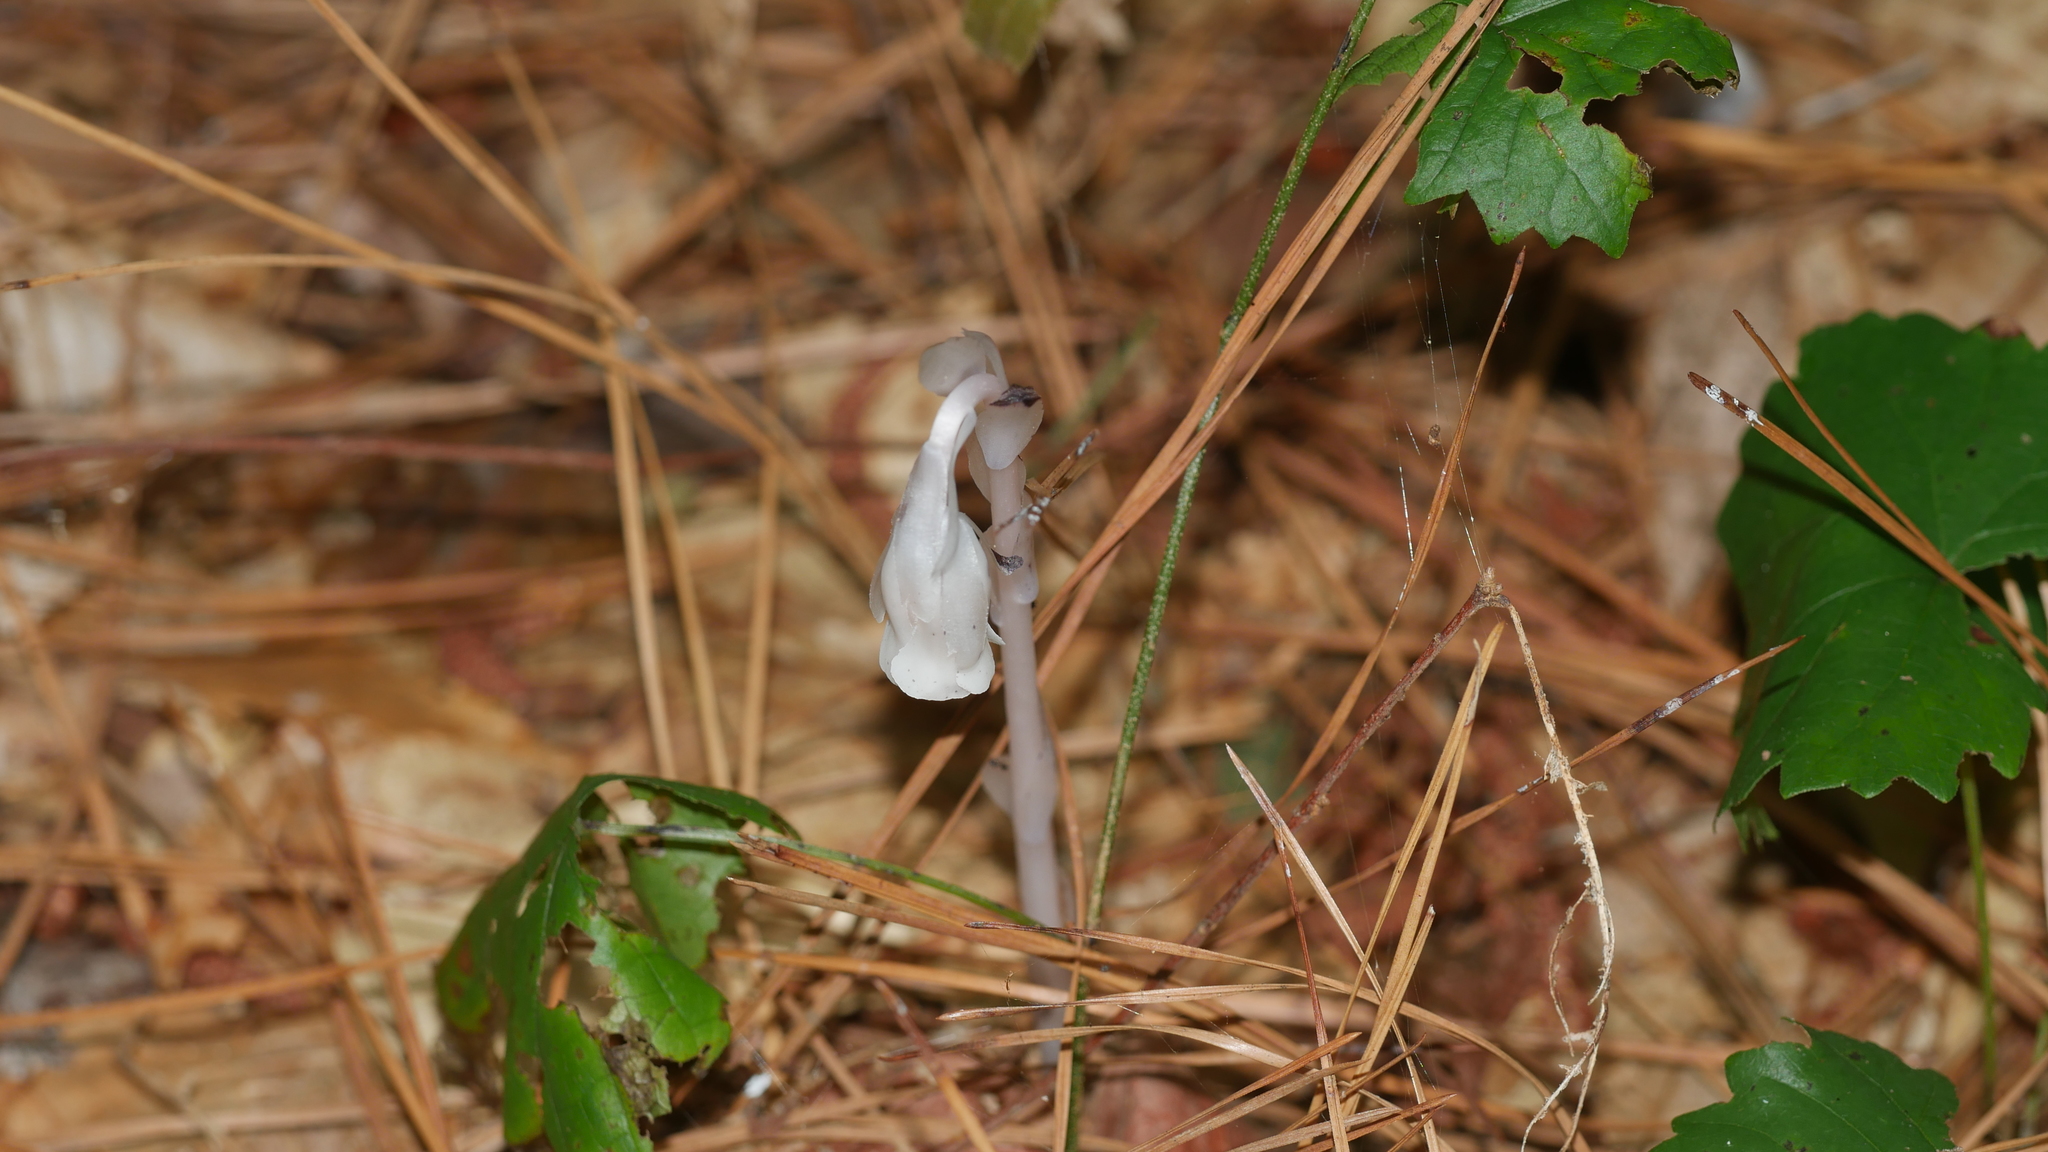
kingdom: Plantae
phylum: Tracheophyta
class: Magnoliopsida
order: Ericales
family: Ericaceae
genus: Monotropa
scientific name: Monotropa uniflora
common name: Convulsion root
